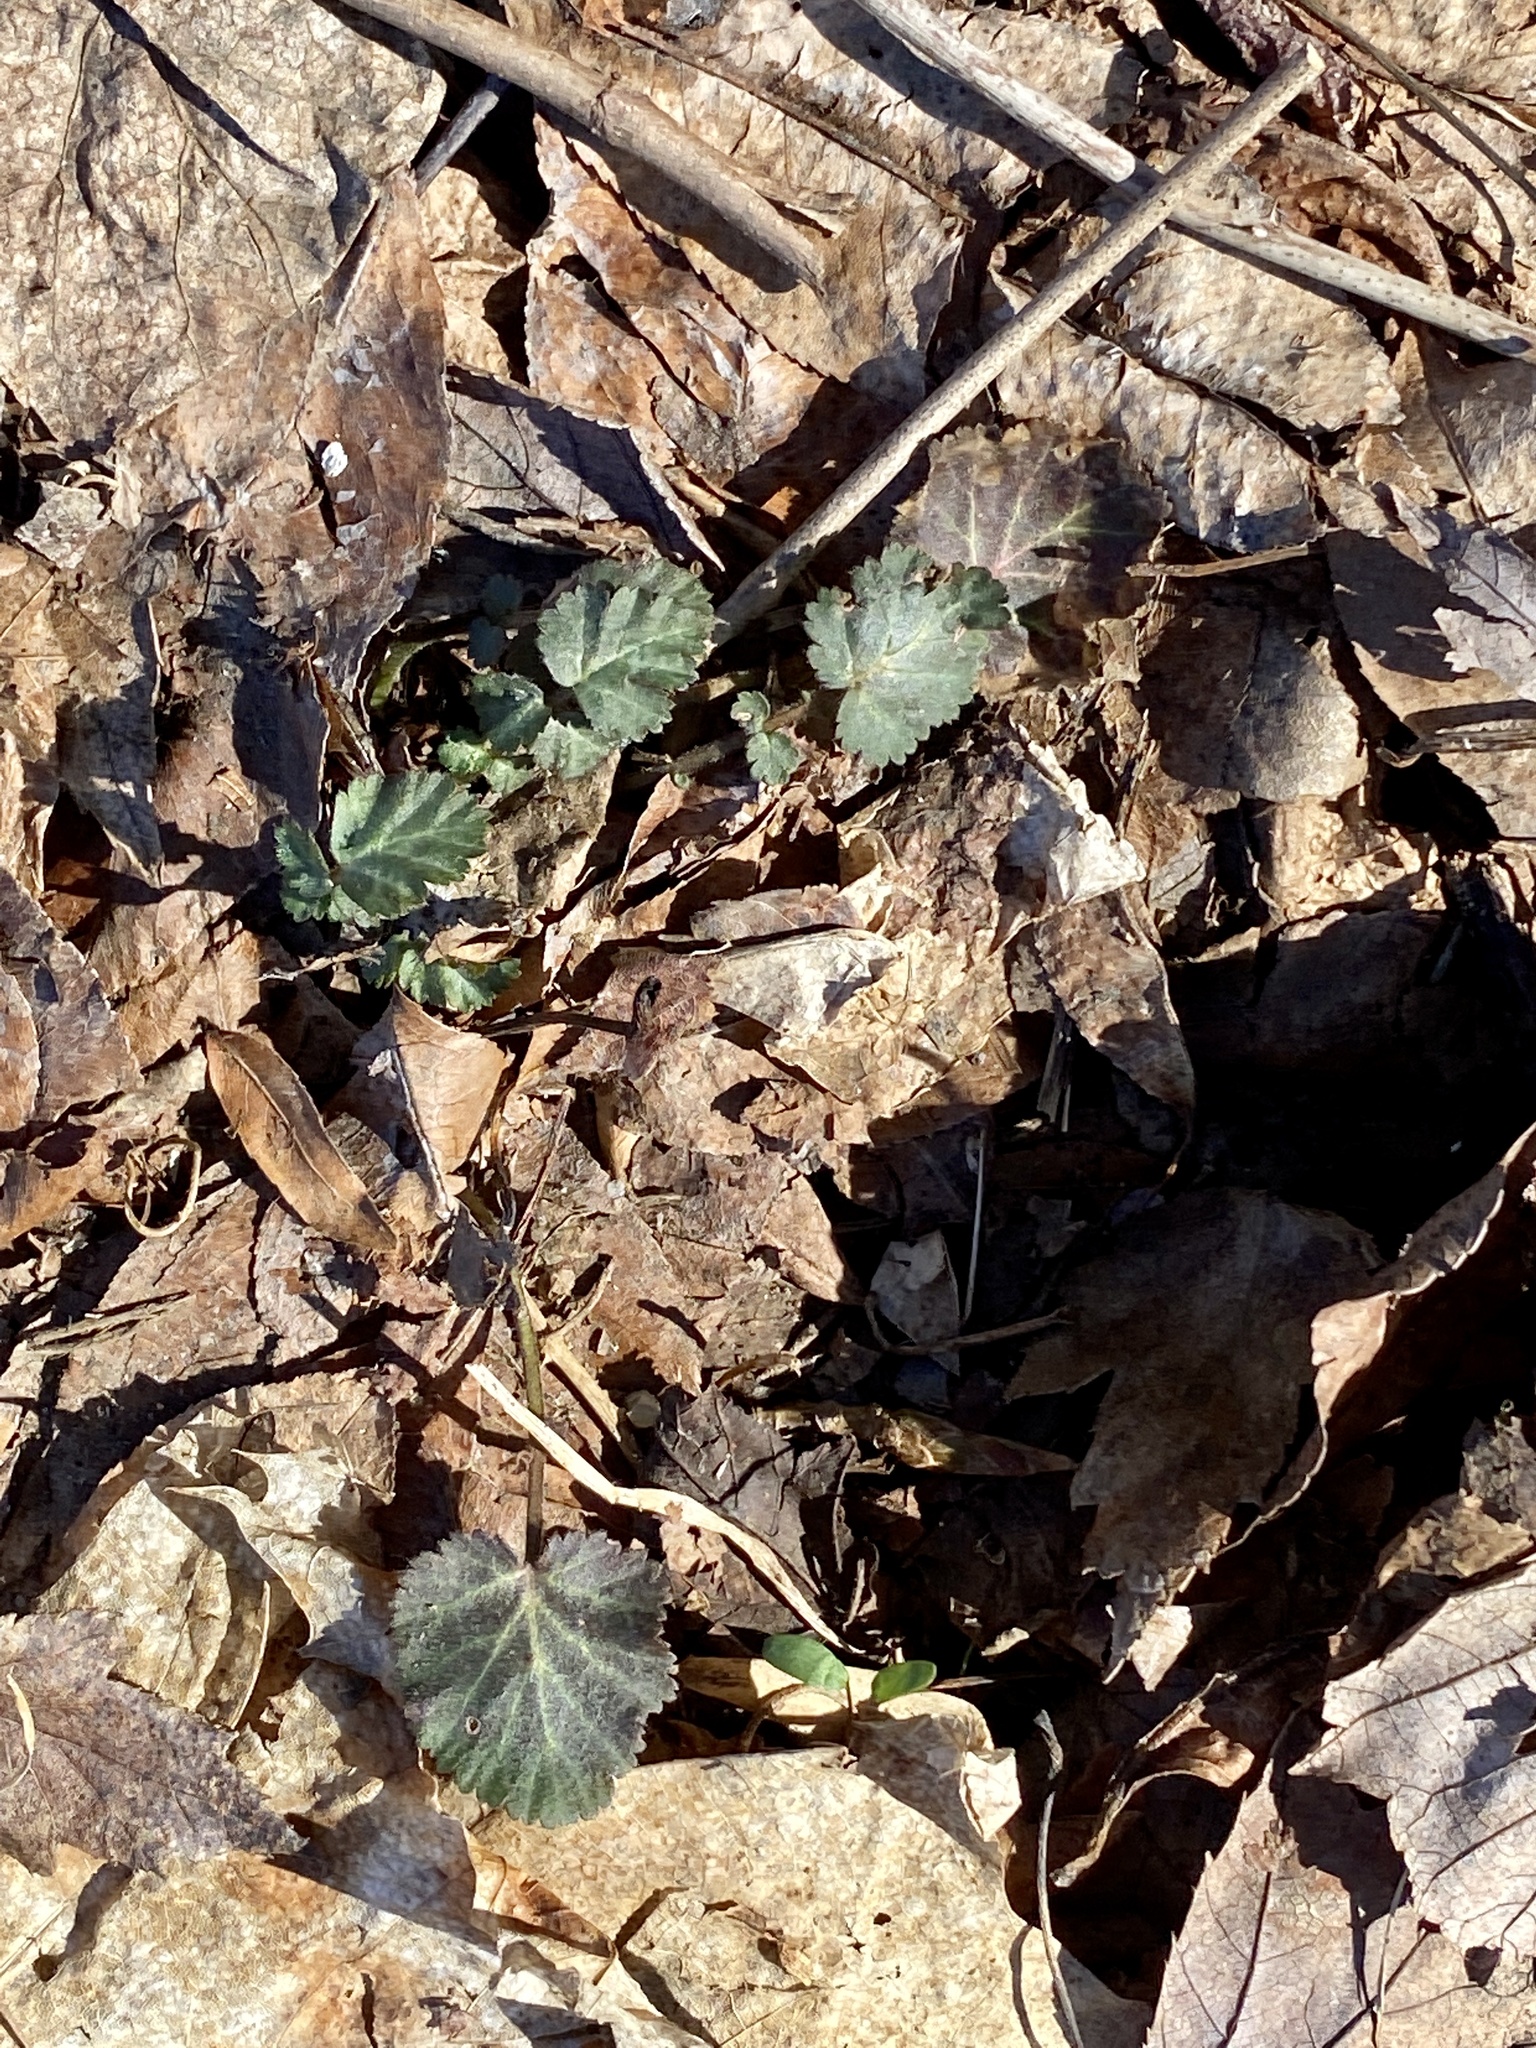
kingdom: Plantae
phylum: Tracheophyta
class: Magnoliopsida
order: Rosales
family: Rosaceae
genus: Geum
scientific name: Geum canadense
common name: White avens
